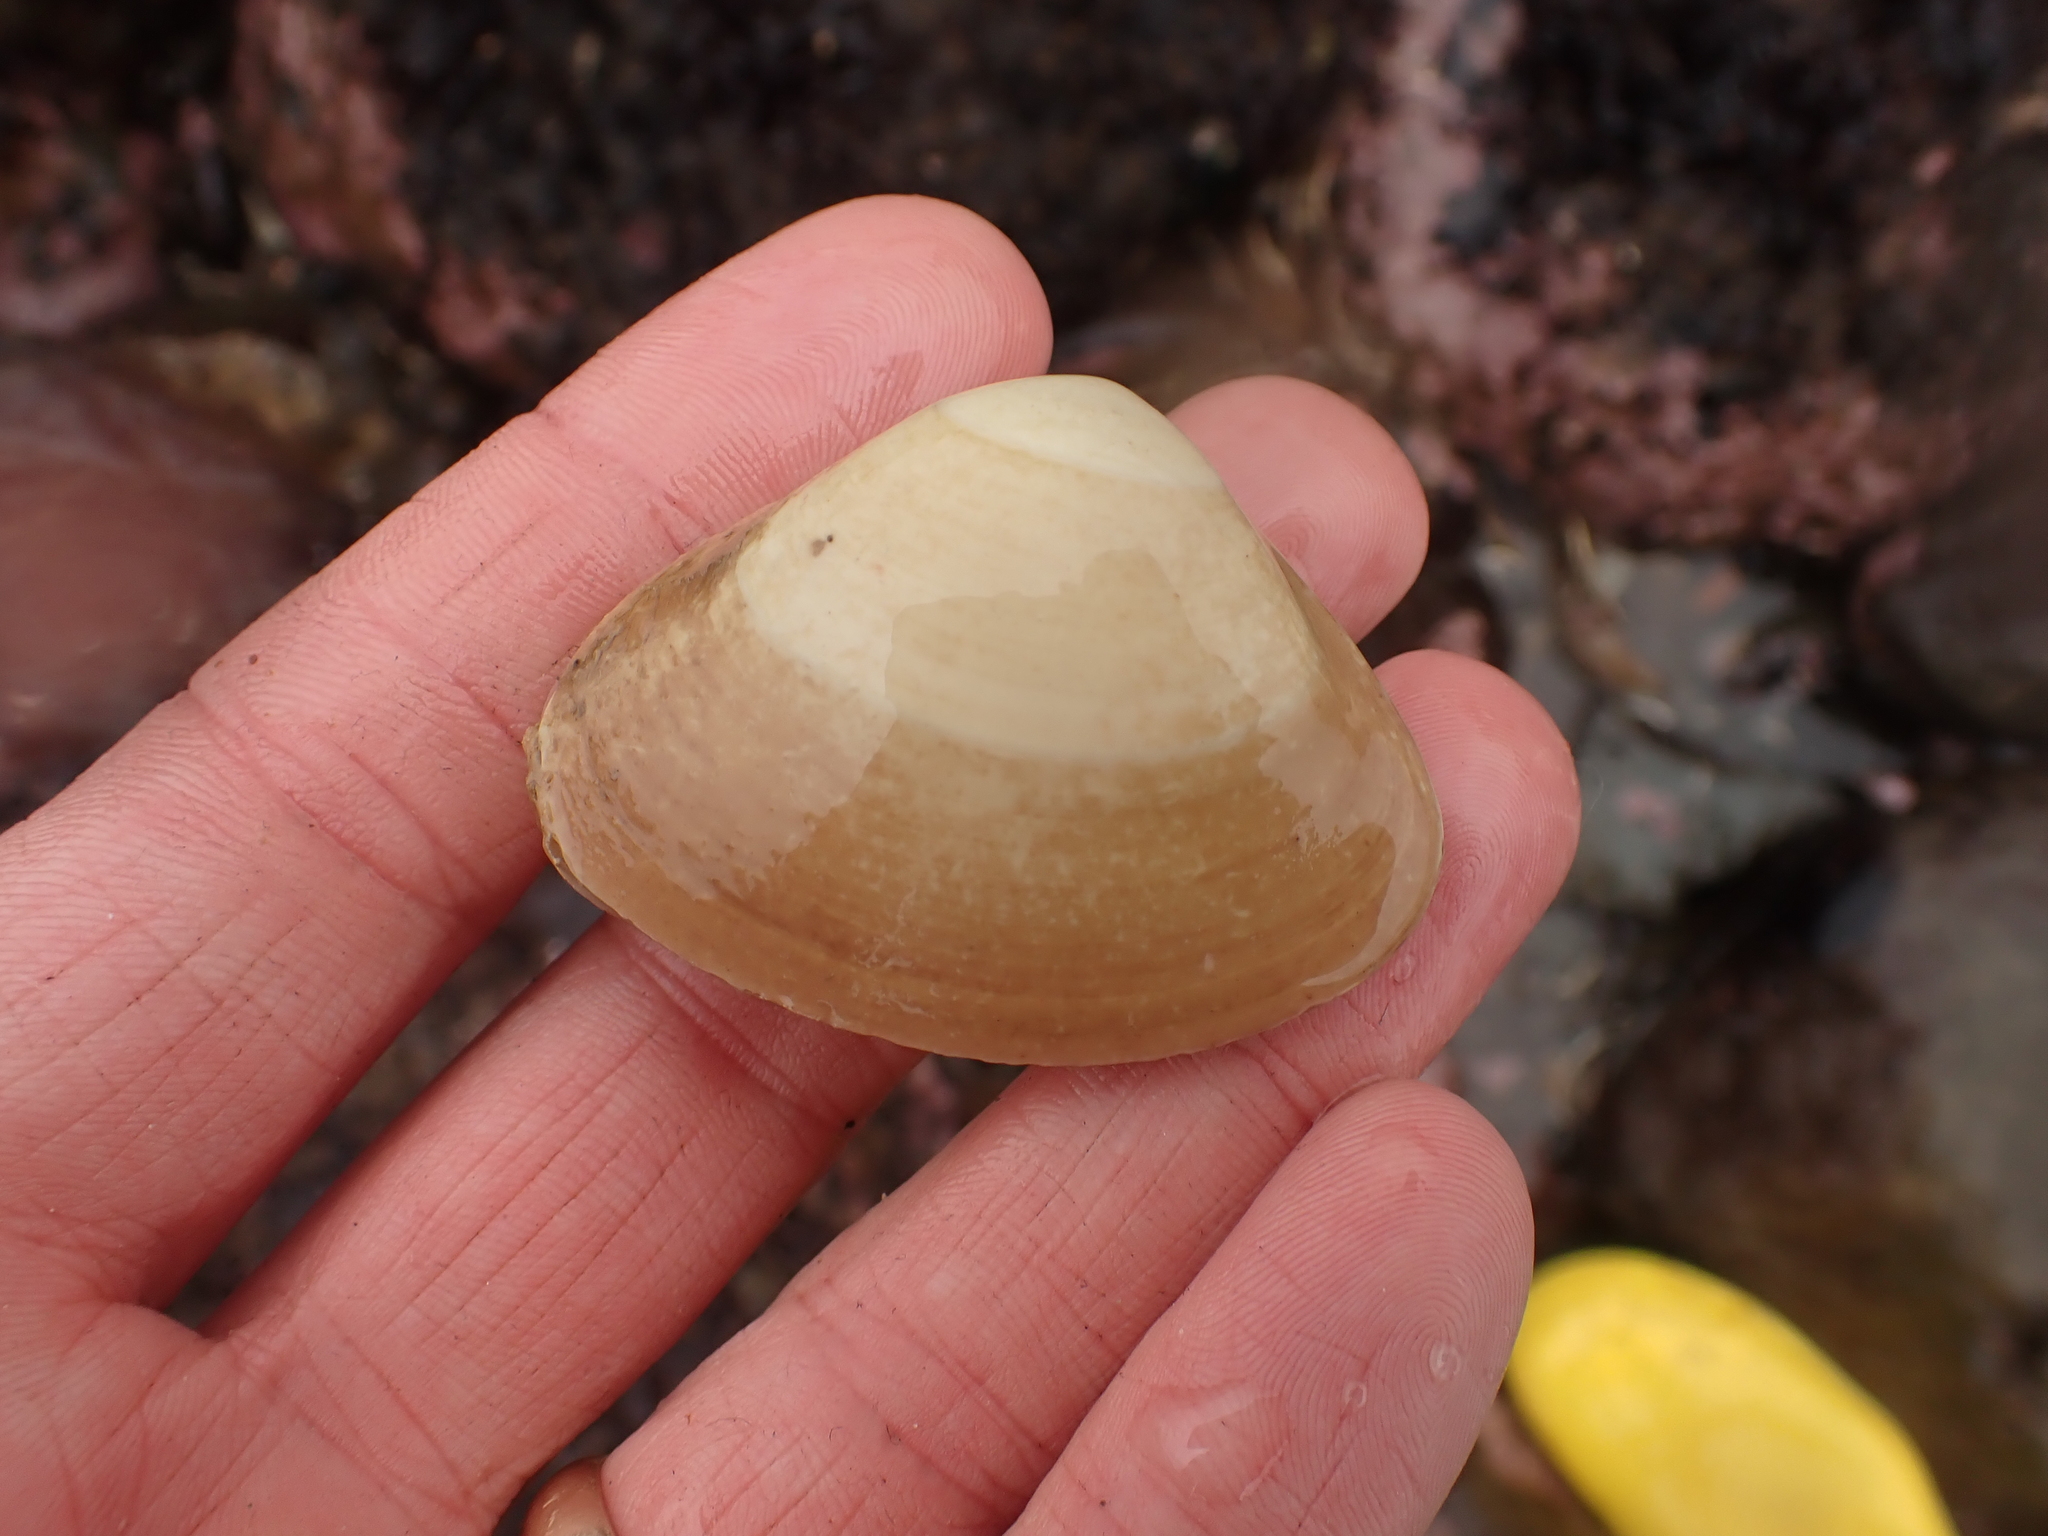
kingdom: Animalia
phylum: Mollusca
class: Bivalvia
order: Venerida
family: Mactridae
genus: Spisula
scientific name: Spisula solidissima
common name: Atlantic surf clam
